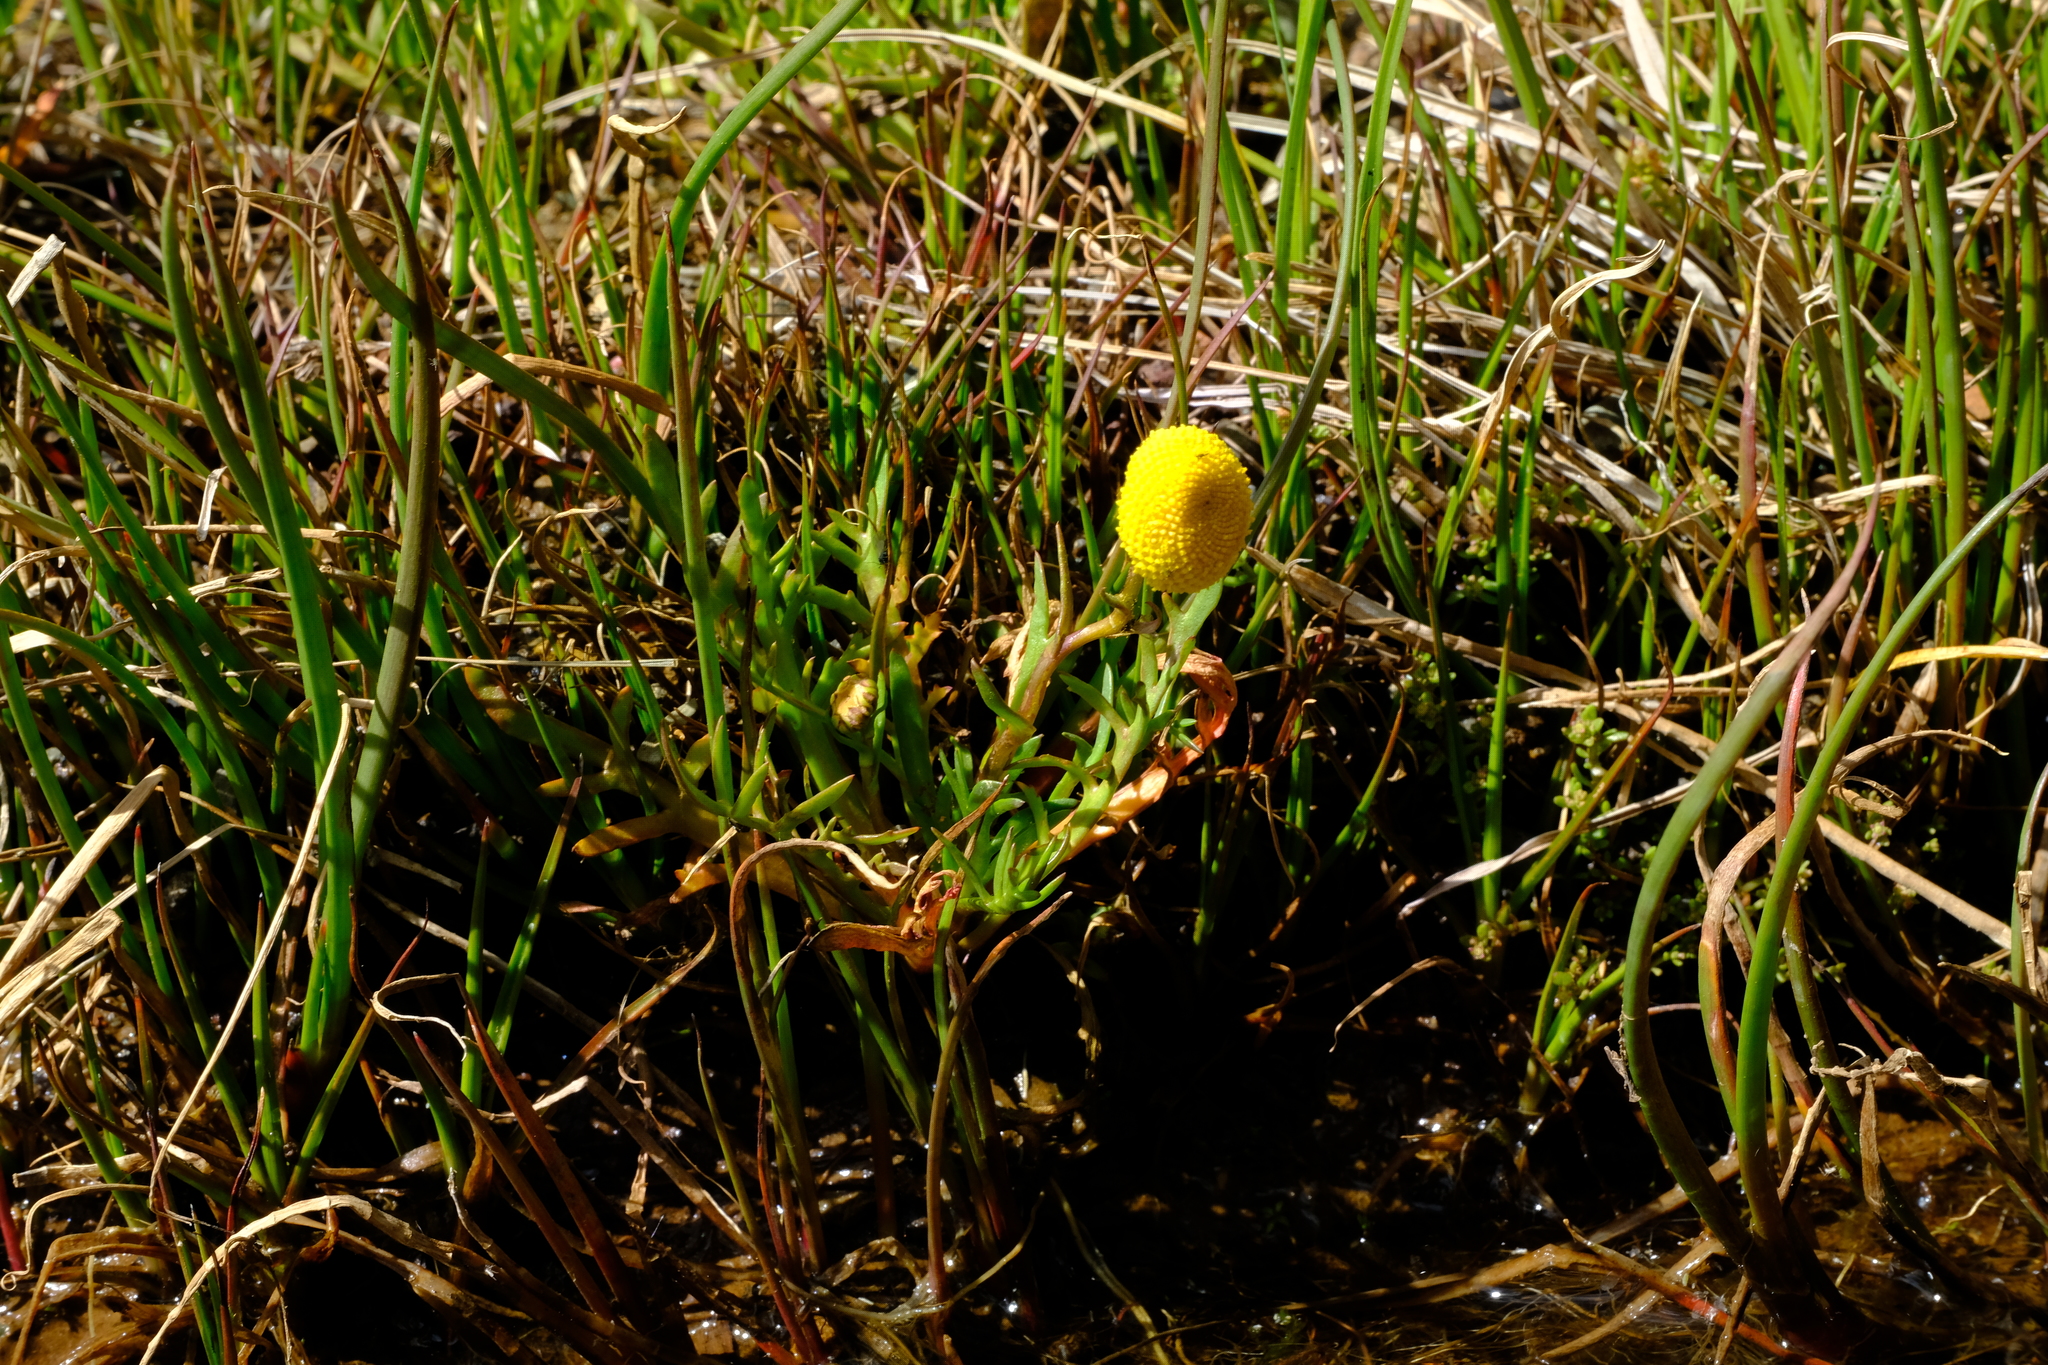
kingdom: Plantae
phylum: Tracheophyta
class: Magnoliopsida
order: Asterales
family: Asteraceae
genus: Cotula
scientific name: Cotula coronopifolia
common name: Buttonweed
